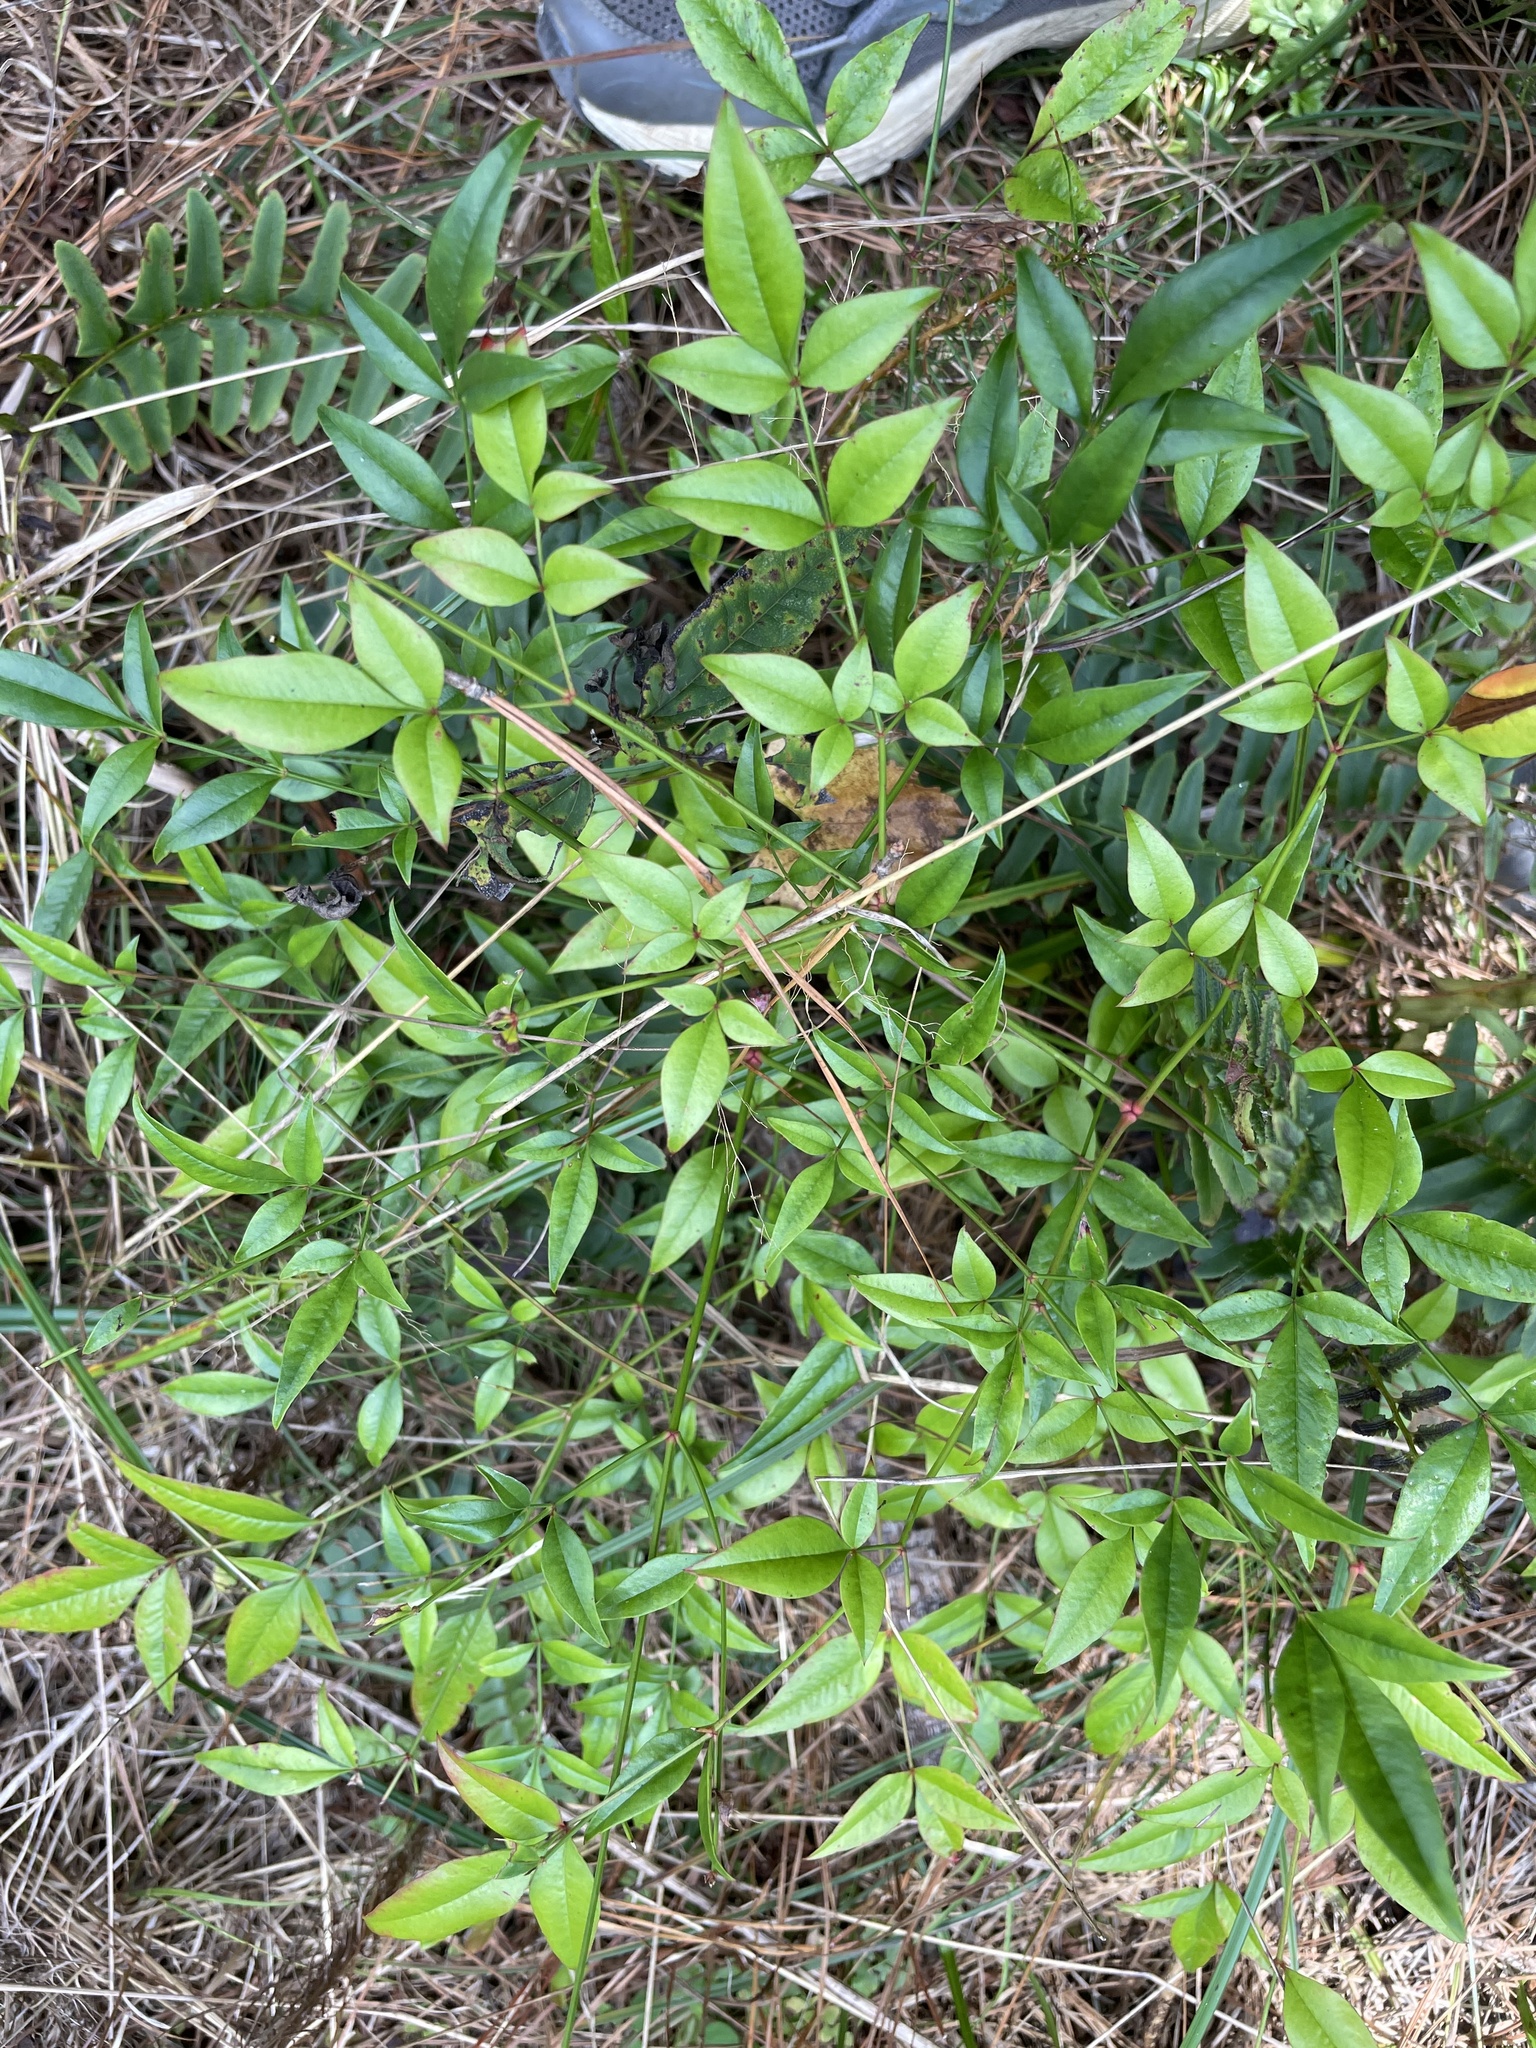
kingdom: Plantae
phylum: Tracheophyta
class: Magnoliopsida
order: Ranunculales
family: Berberidaceae
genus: Nandina
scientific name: Nandina domestica
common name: Sacred bamboo
